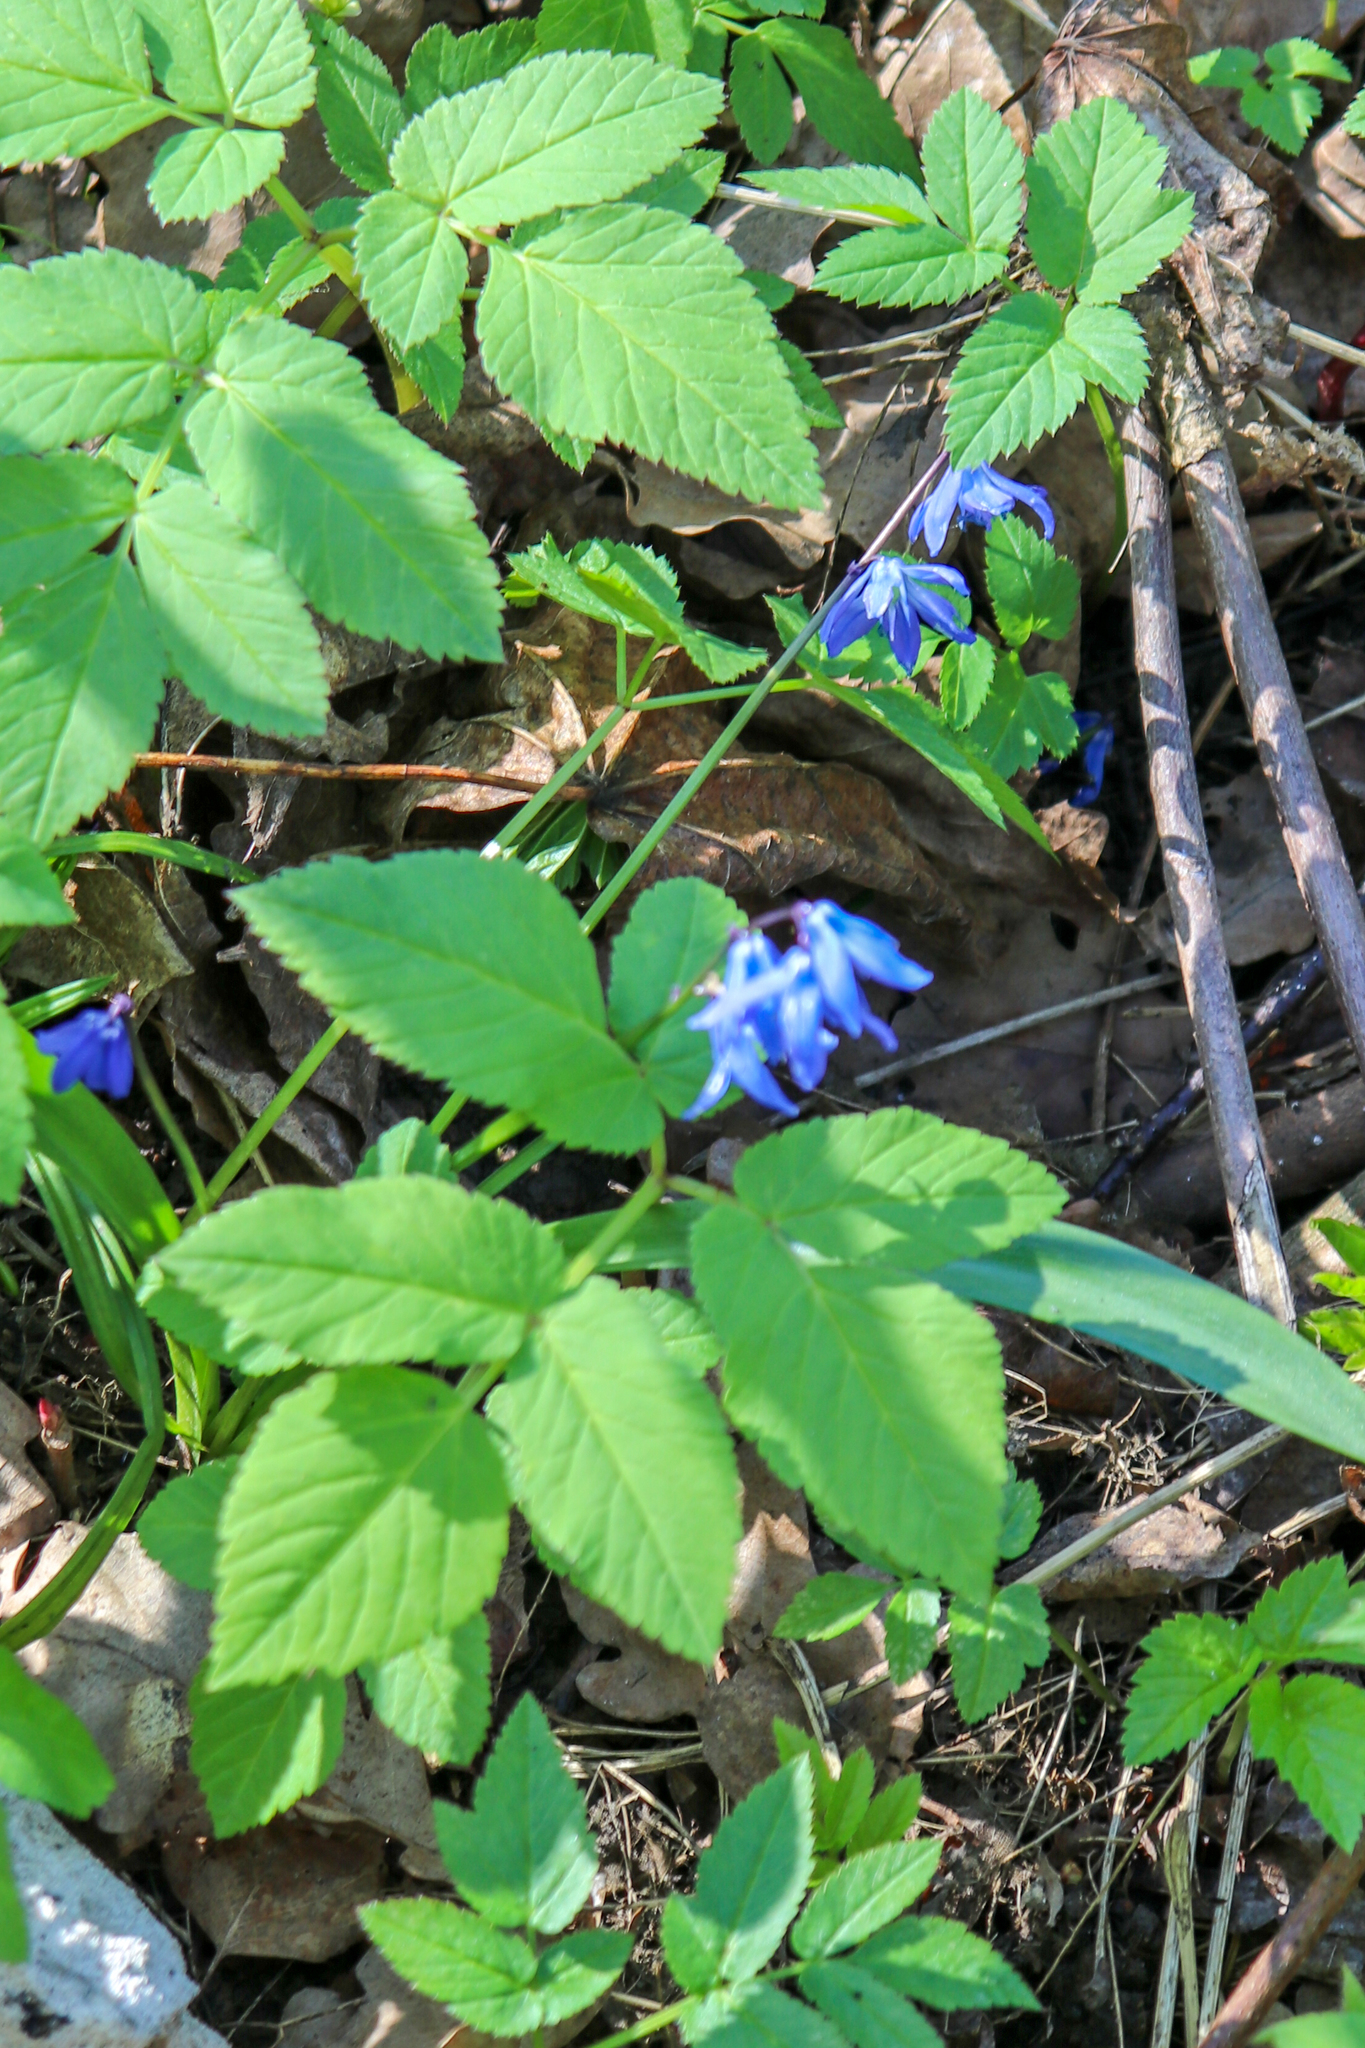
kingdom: Plantae
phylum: Tracheophyta
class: Liliopsida
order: Asparagales
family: Asparagaceae
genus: Scilla
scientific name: Scilla siberica
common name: Siberian squill
